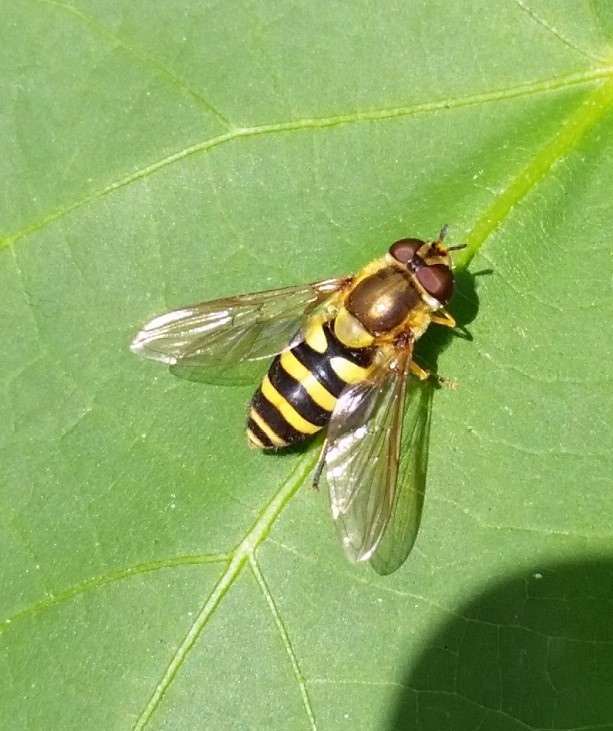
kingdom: Animalia
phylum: Arthropoda
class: Insecta
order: Diptera
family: Syrphidae
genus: Syrphus
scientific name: Syrphus
